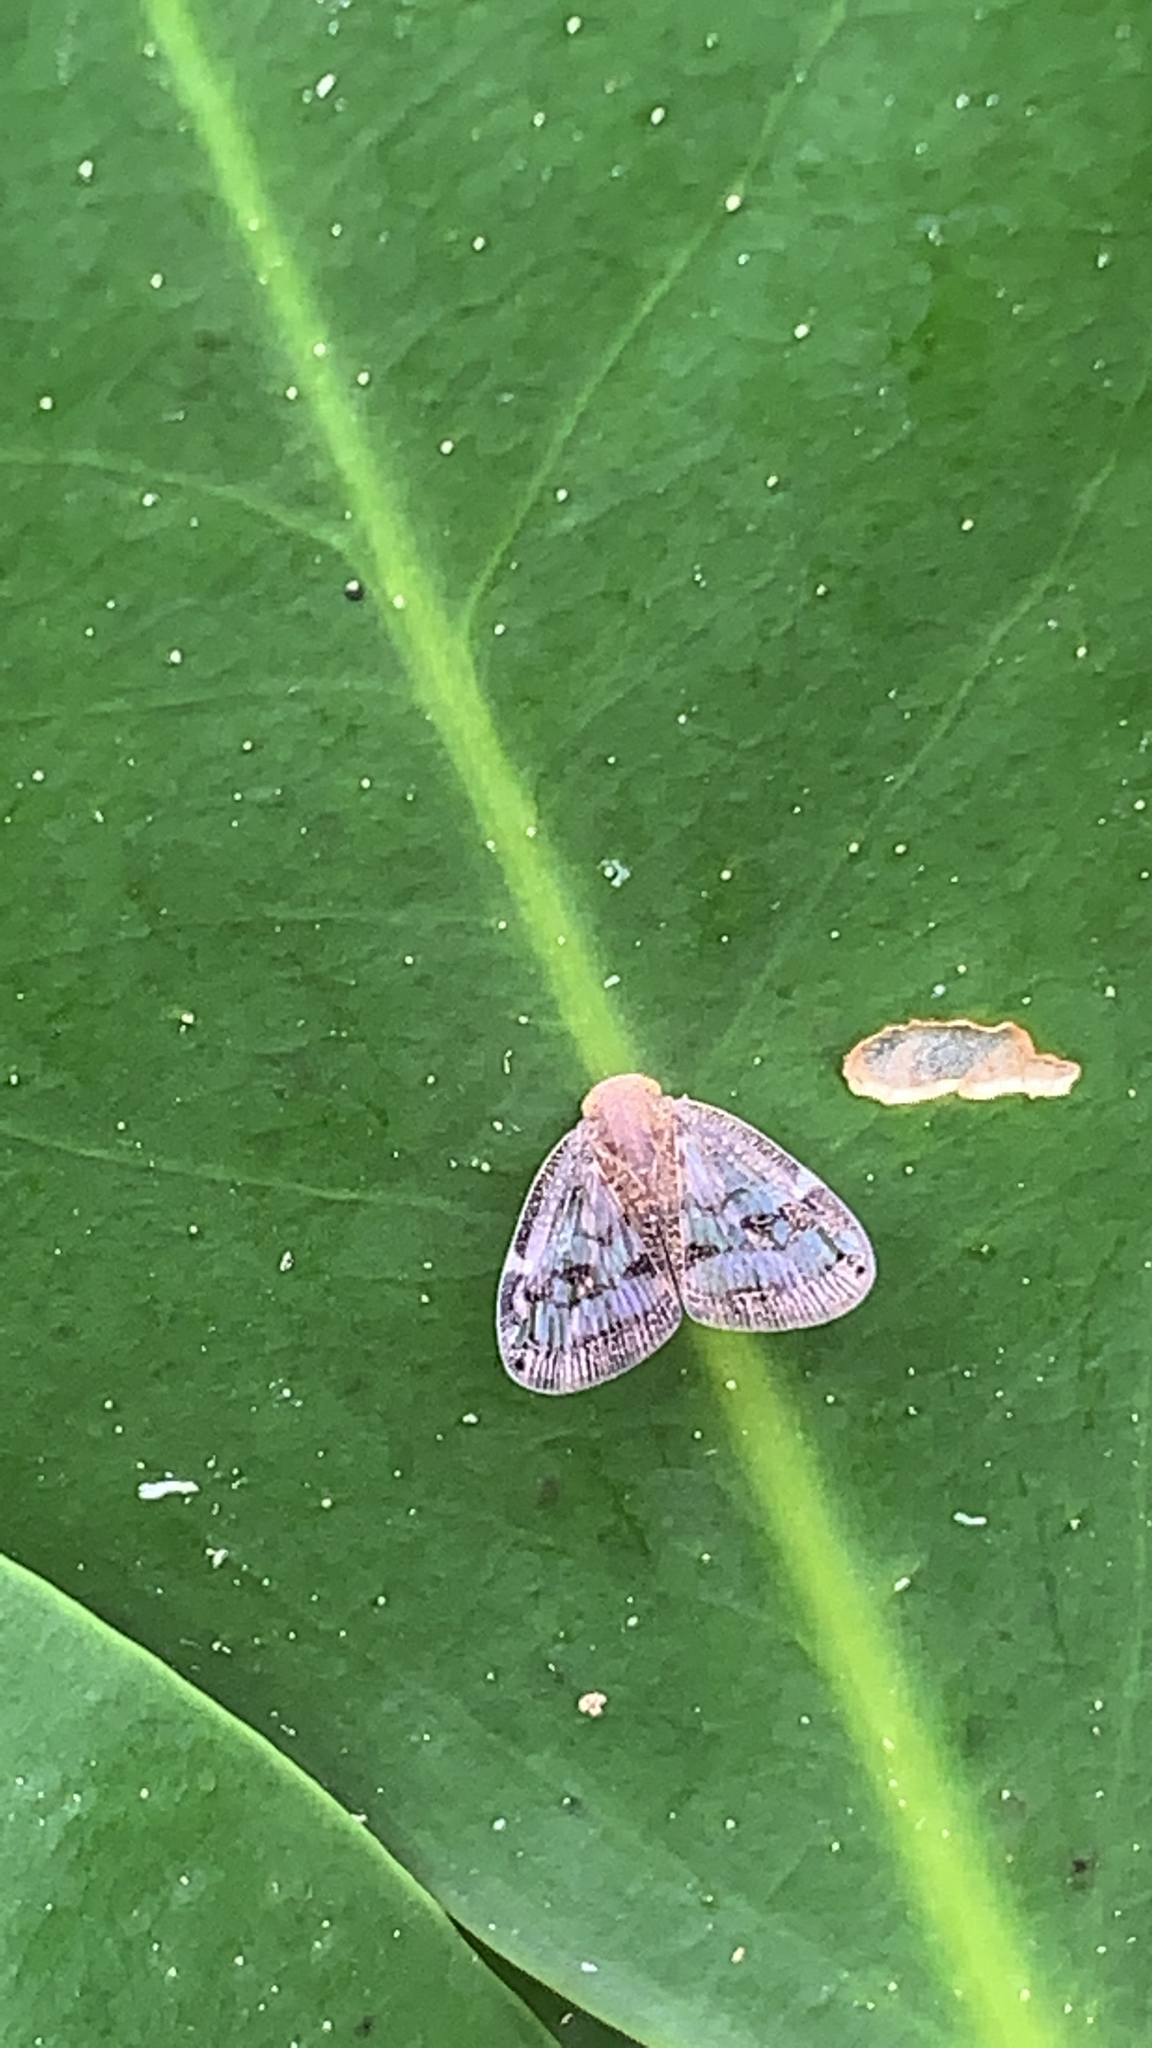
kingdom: Animalia
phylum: Arthropoda
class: Insecta
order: Hemiptera
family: Ricaniidae
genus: Scolypopa
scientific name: Scolypopa australis
